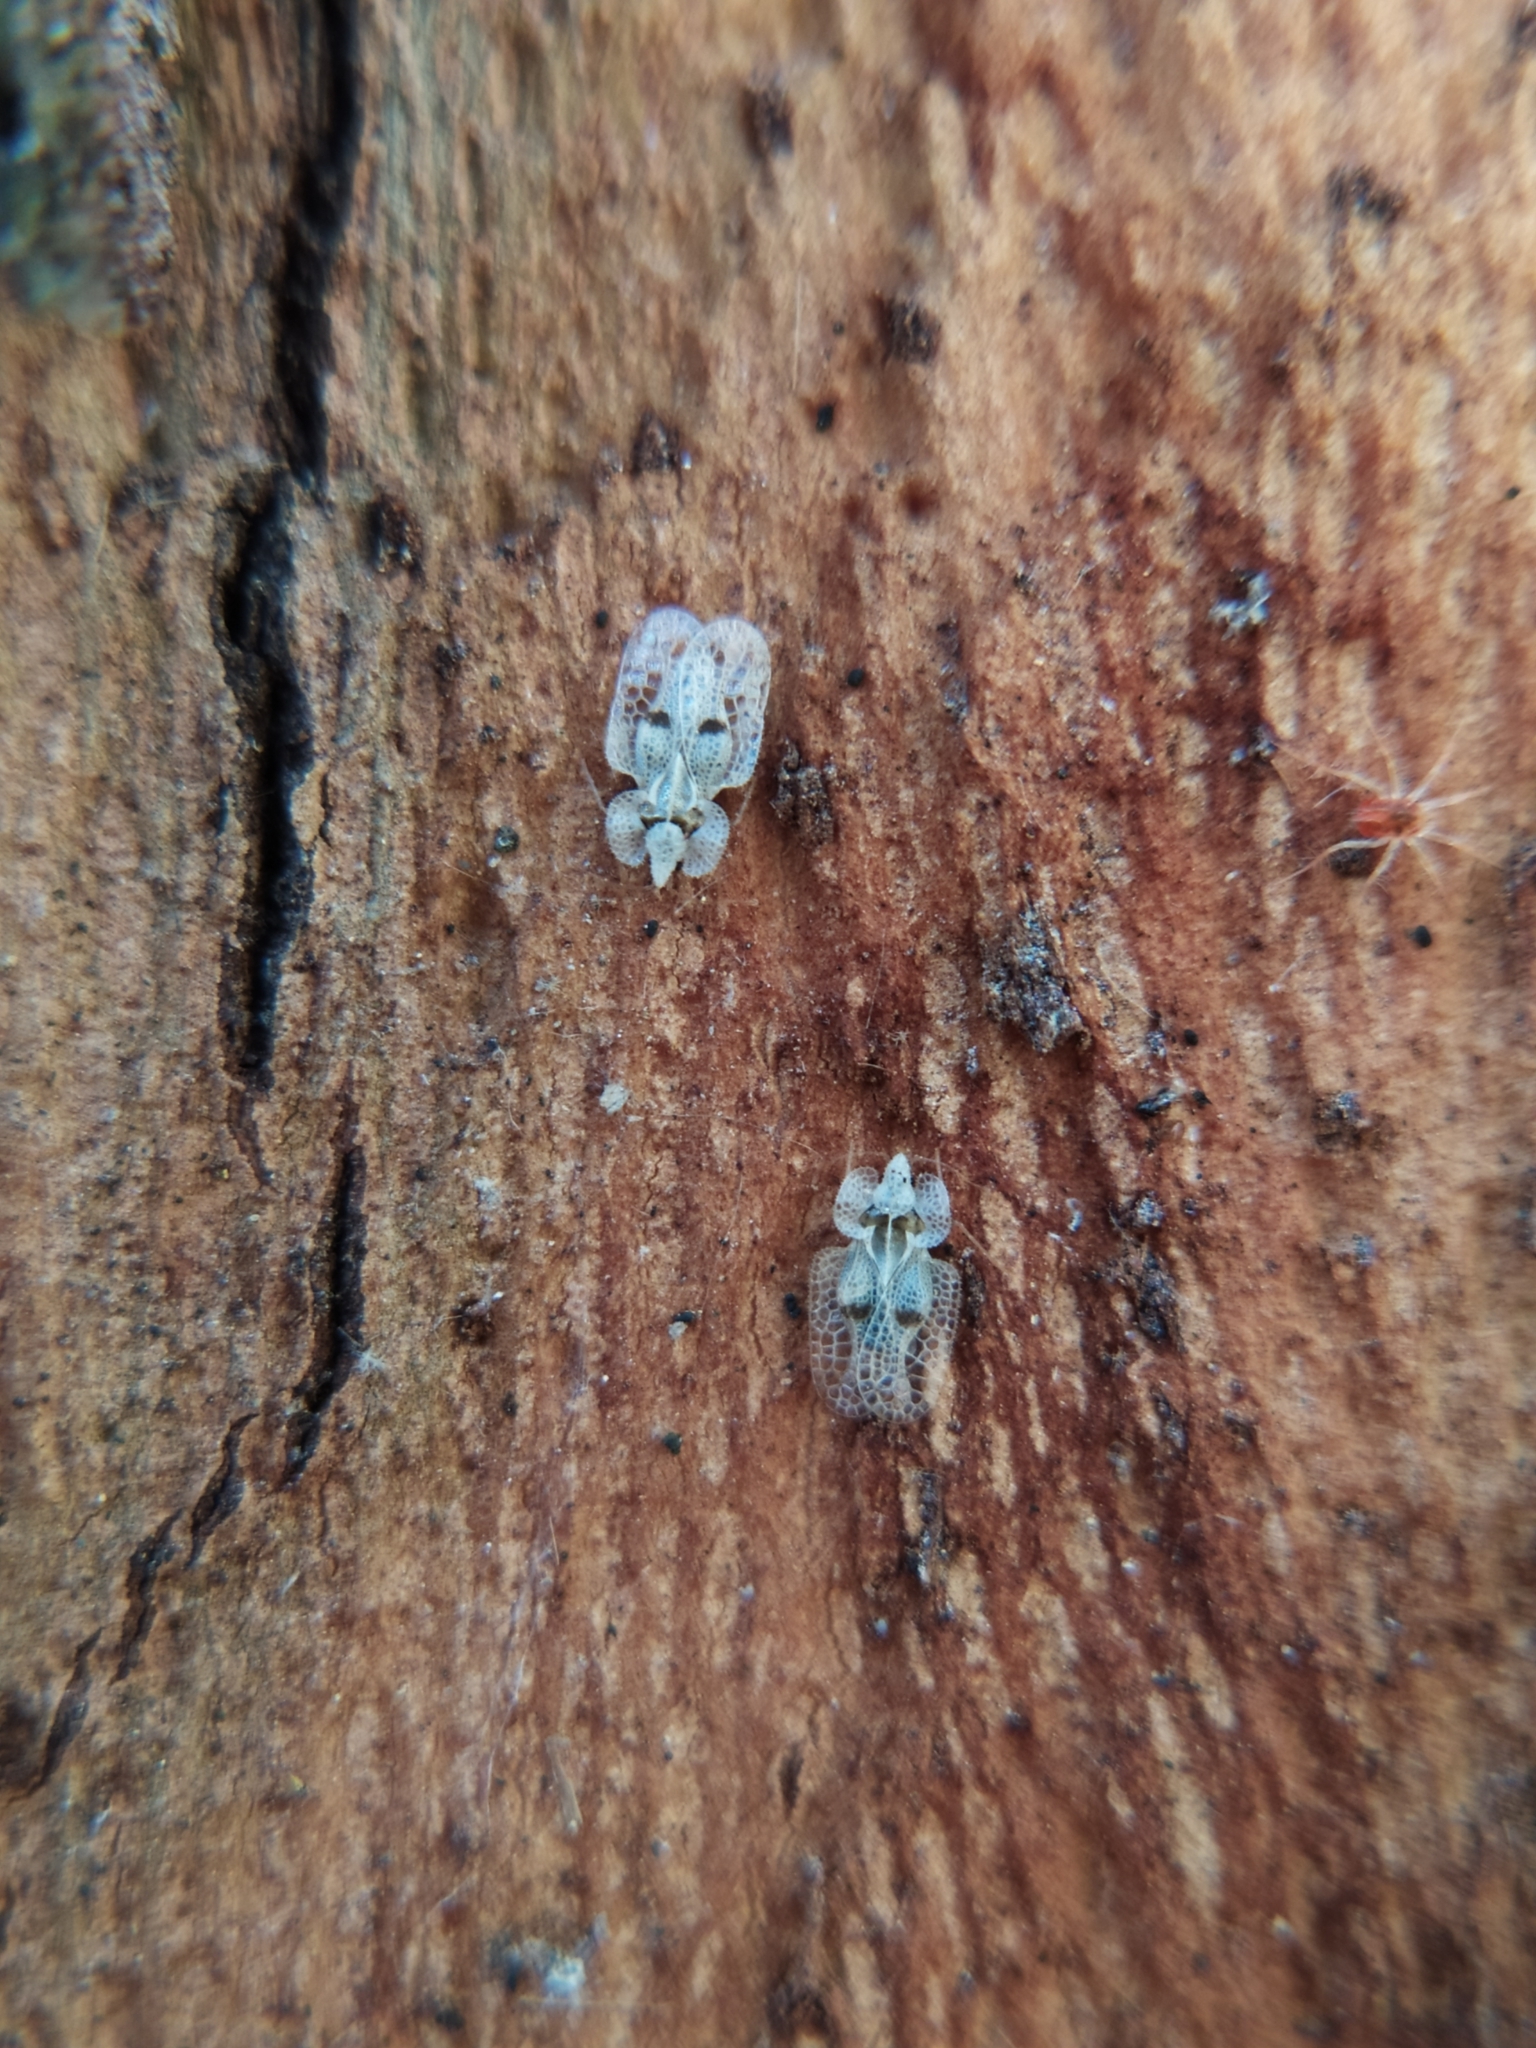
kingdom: Animalia
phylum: Arthropoda
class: Insecta
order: Hemiptera
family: Tingidae
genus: Corythucha
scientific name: Corythucha ciliata
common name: Sycamore lace bug
